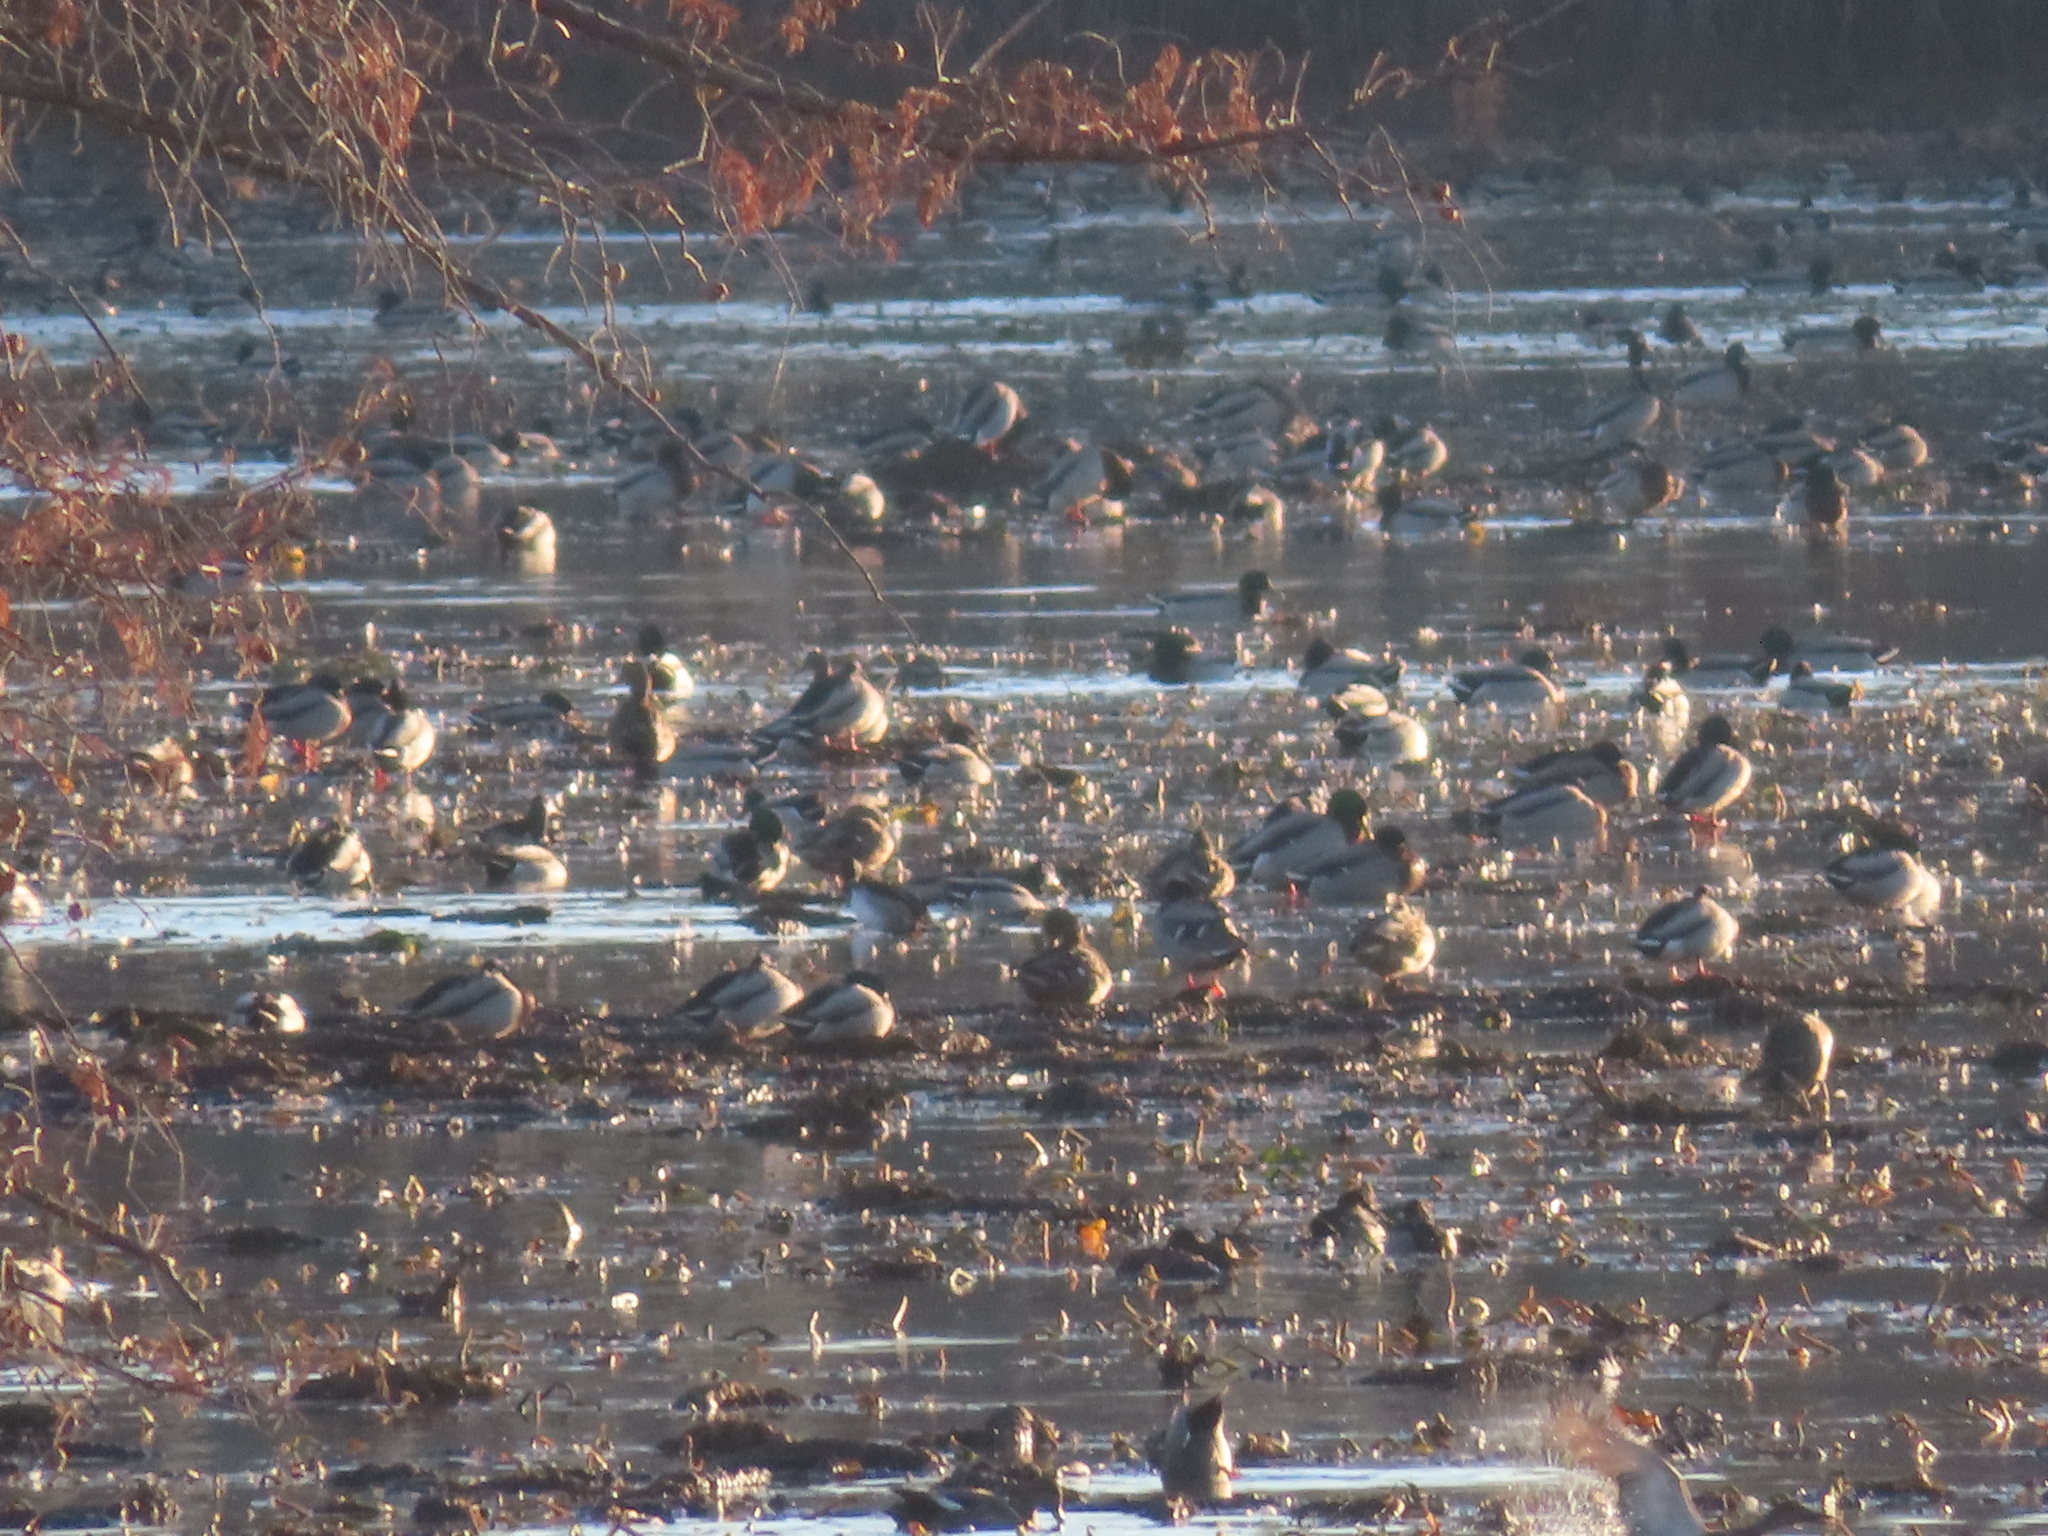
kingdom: Animalia
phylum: Chordata
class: Aves
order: Anseriformes
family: Anatidae
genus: Anas
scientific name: Anas platyrhynchos
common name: Mallard
